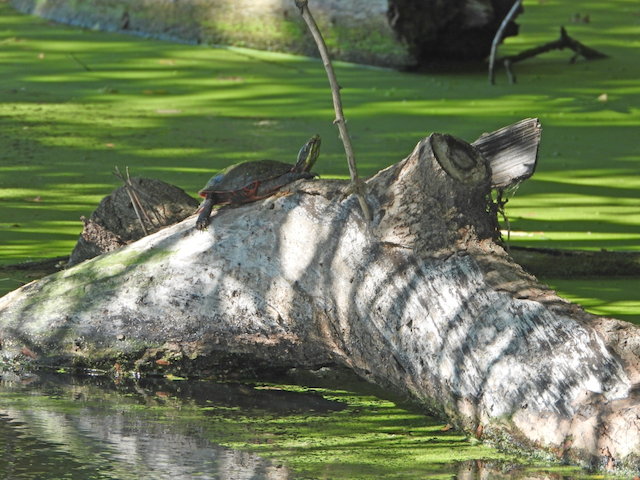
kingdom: Animalia
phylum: Chordata
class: Testudines
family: Emydidae
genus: Chrysemys
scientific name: Chrysemys picta
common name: Painted turtle
